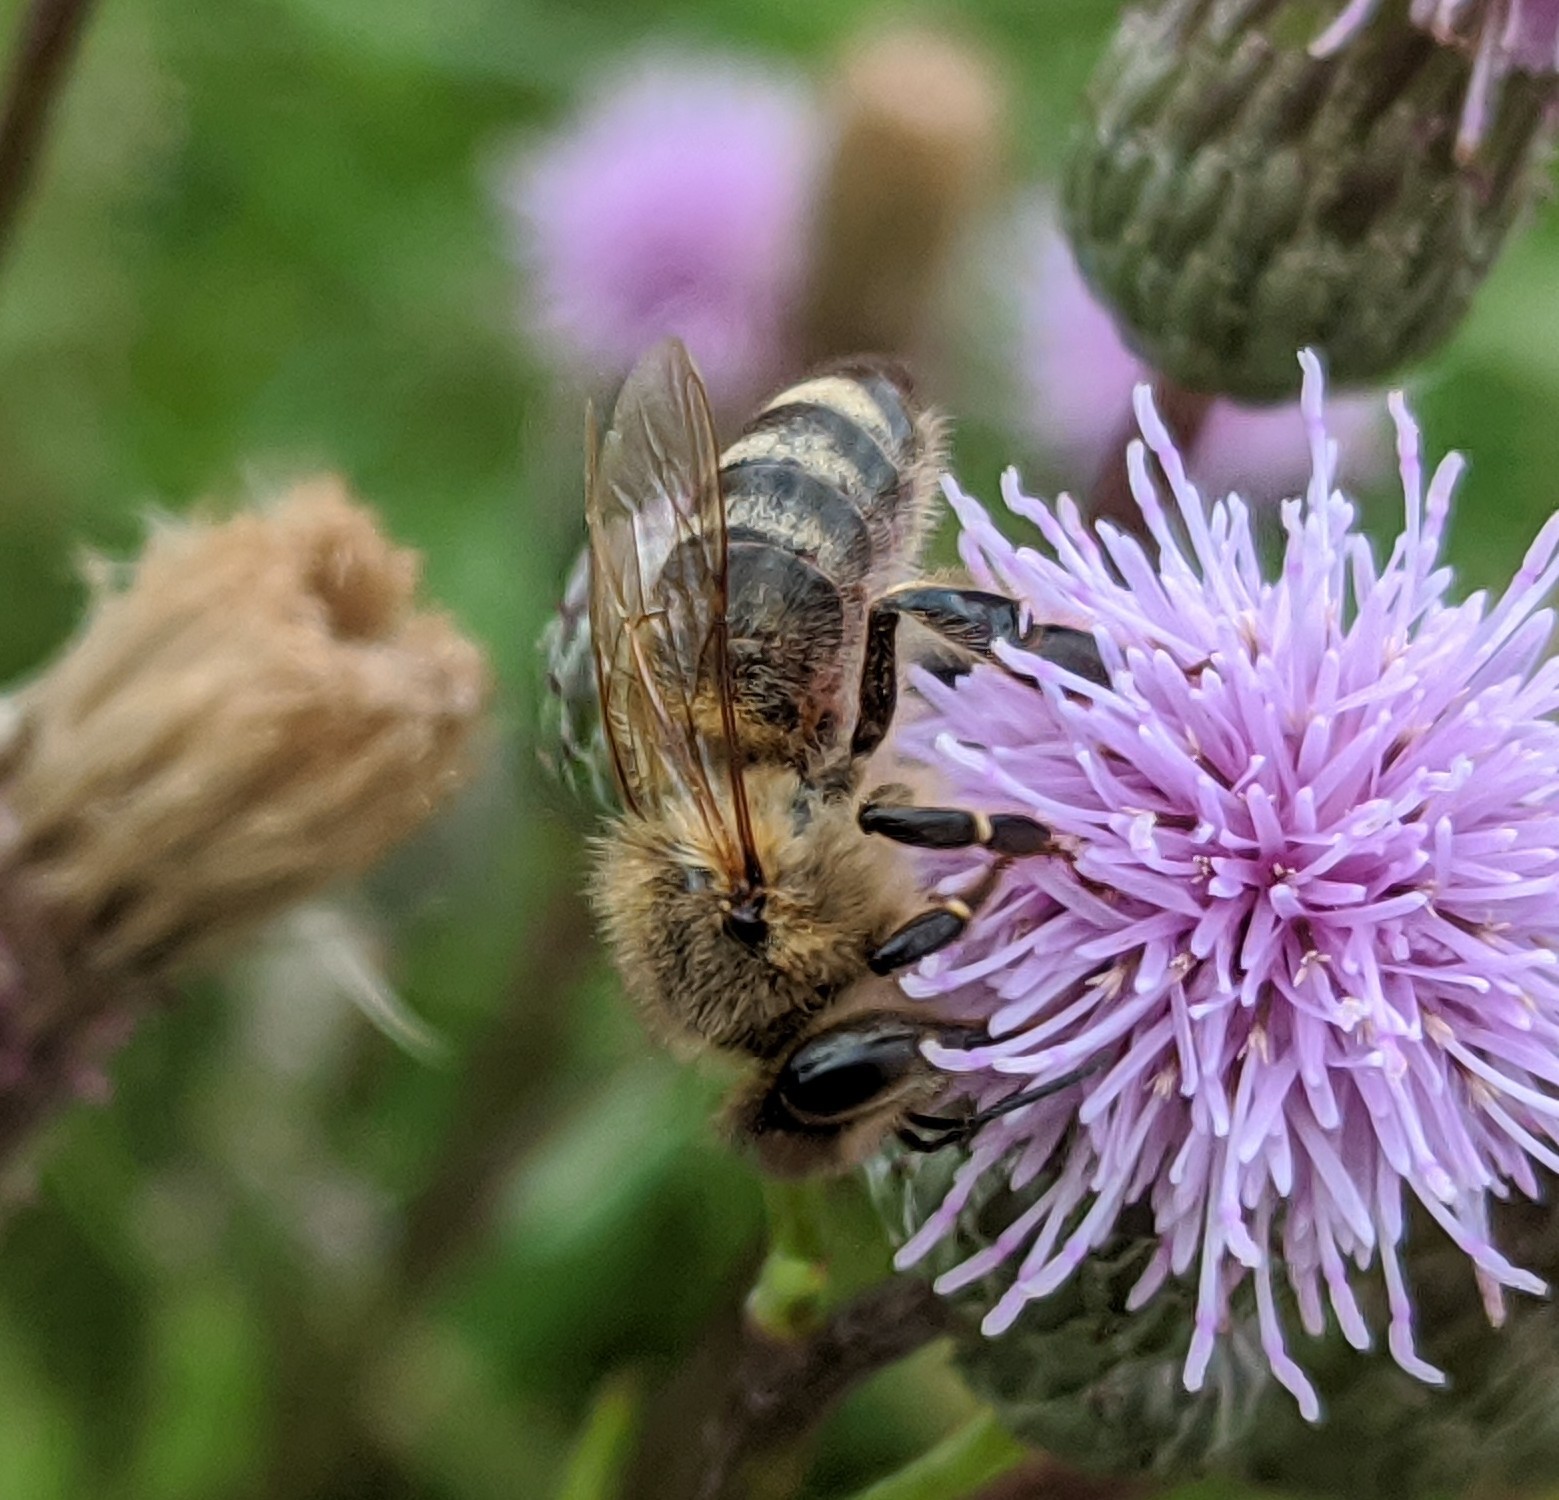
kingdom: Animalia
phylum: Arthropoda
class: Insecta
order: Hymenoptera
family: Apidae
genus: Apis
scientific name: Apis mellifera
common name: Honey bee
